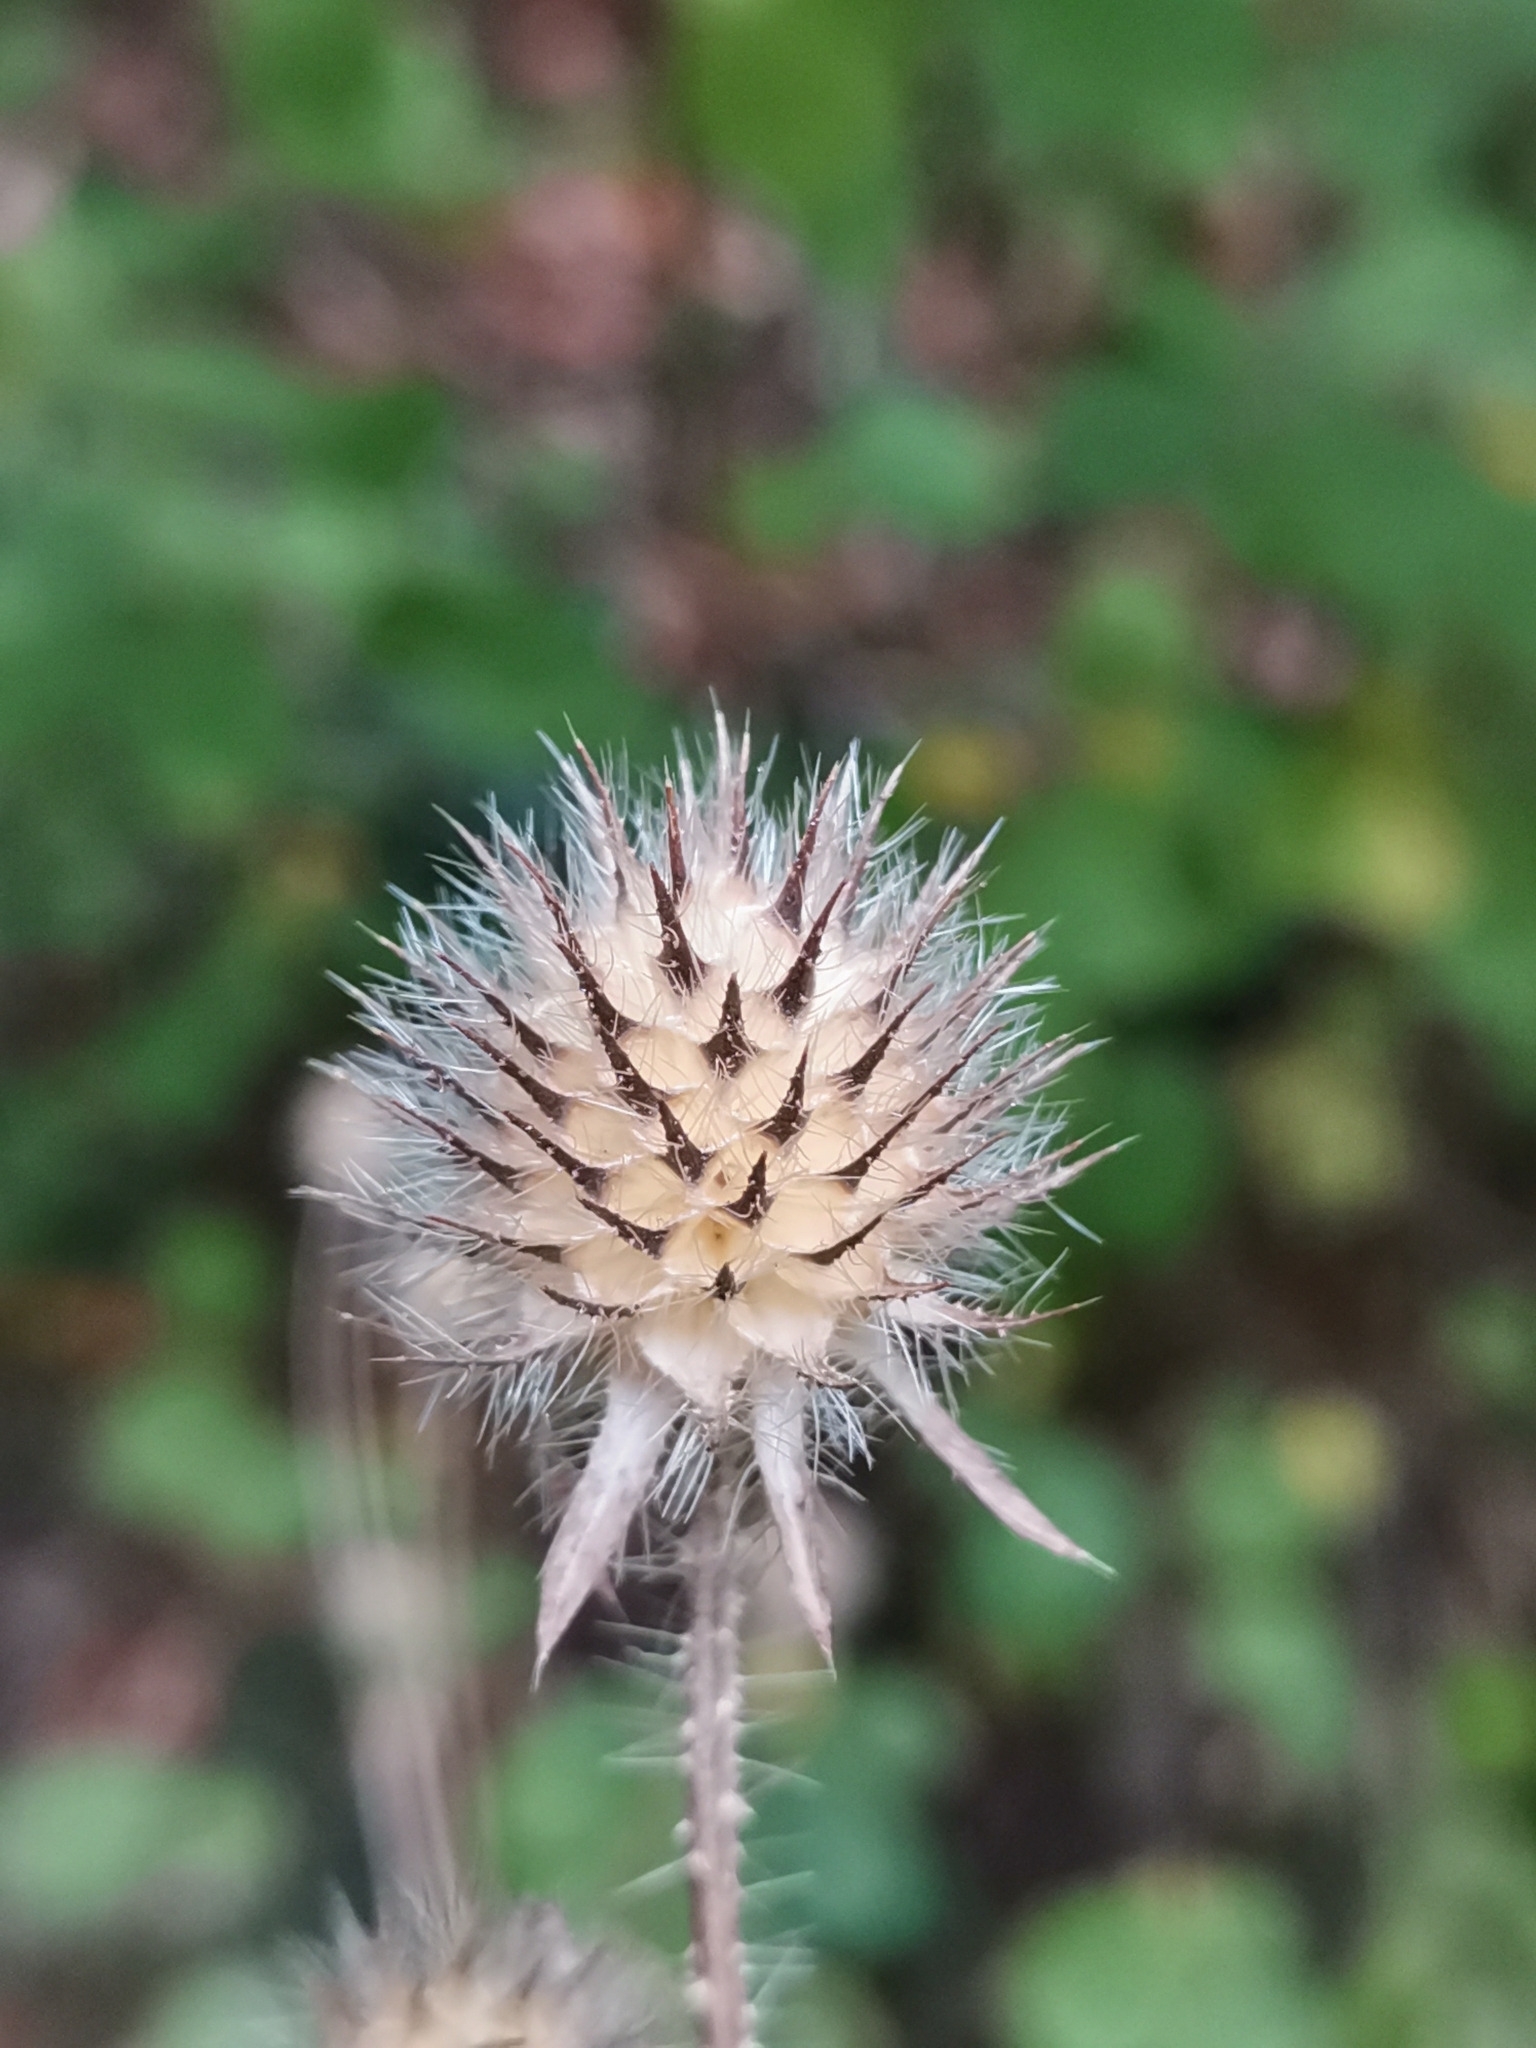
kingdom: Plantae
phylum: Tracheophyta
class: Magnoliopsida
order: Dipsacales
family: Caprifoliaceae
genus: Dipsacus
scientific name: Dipsacus pilosus
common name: Small teasel
